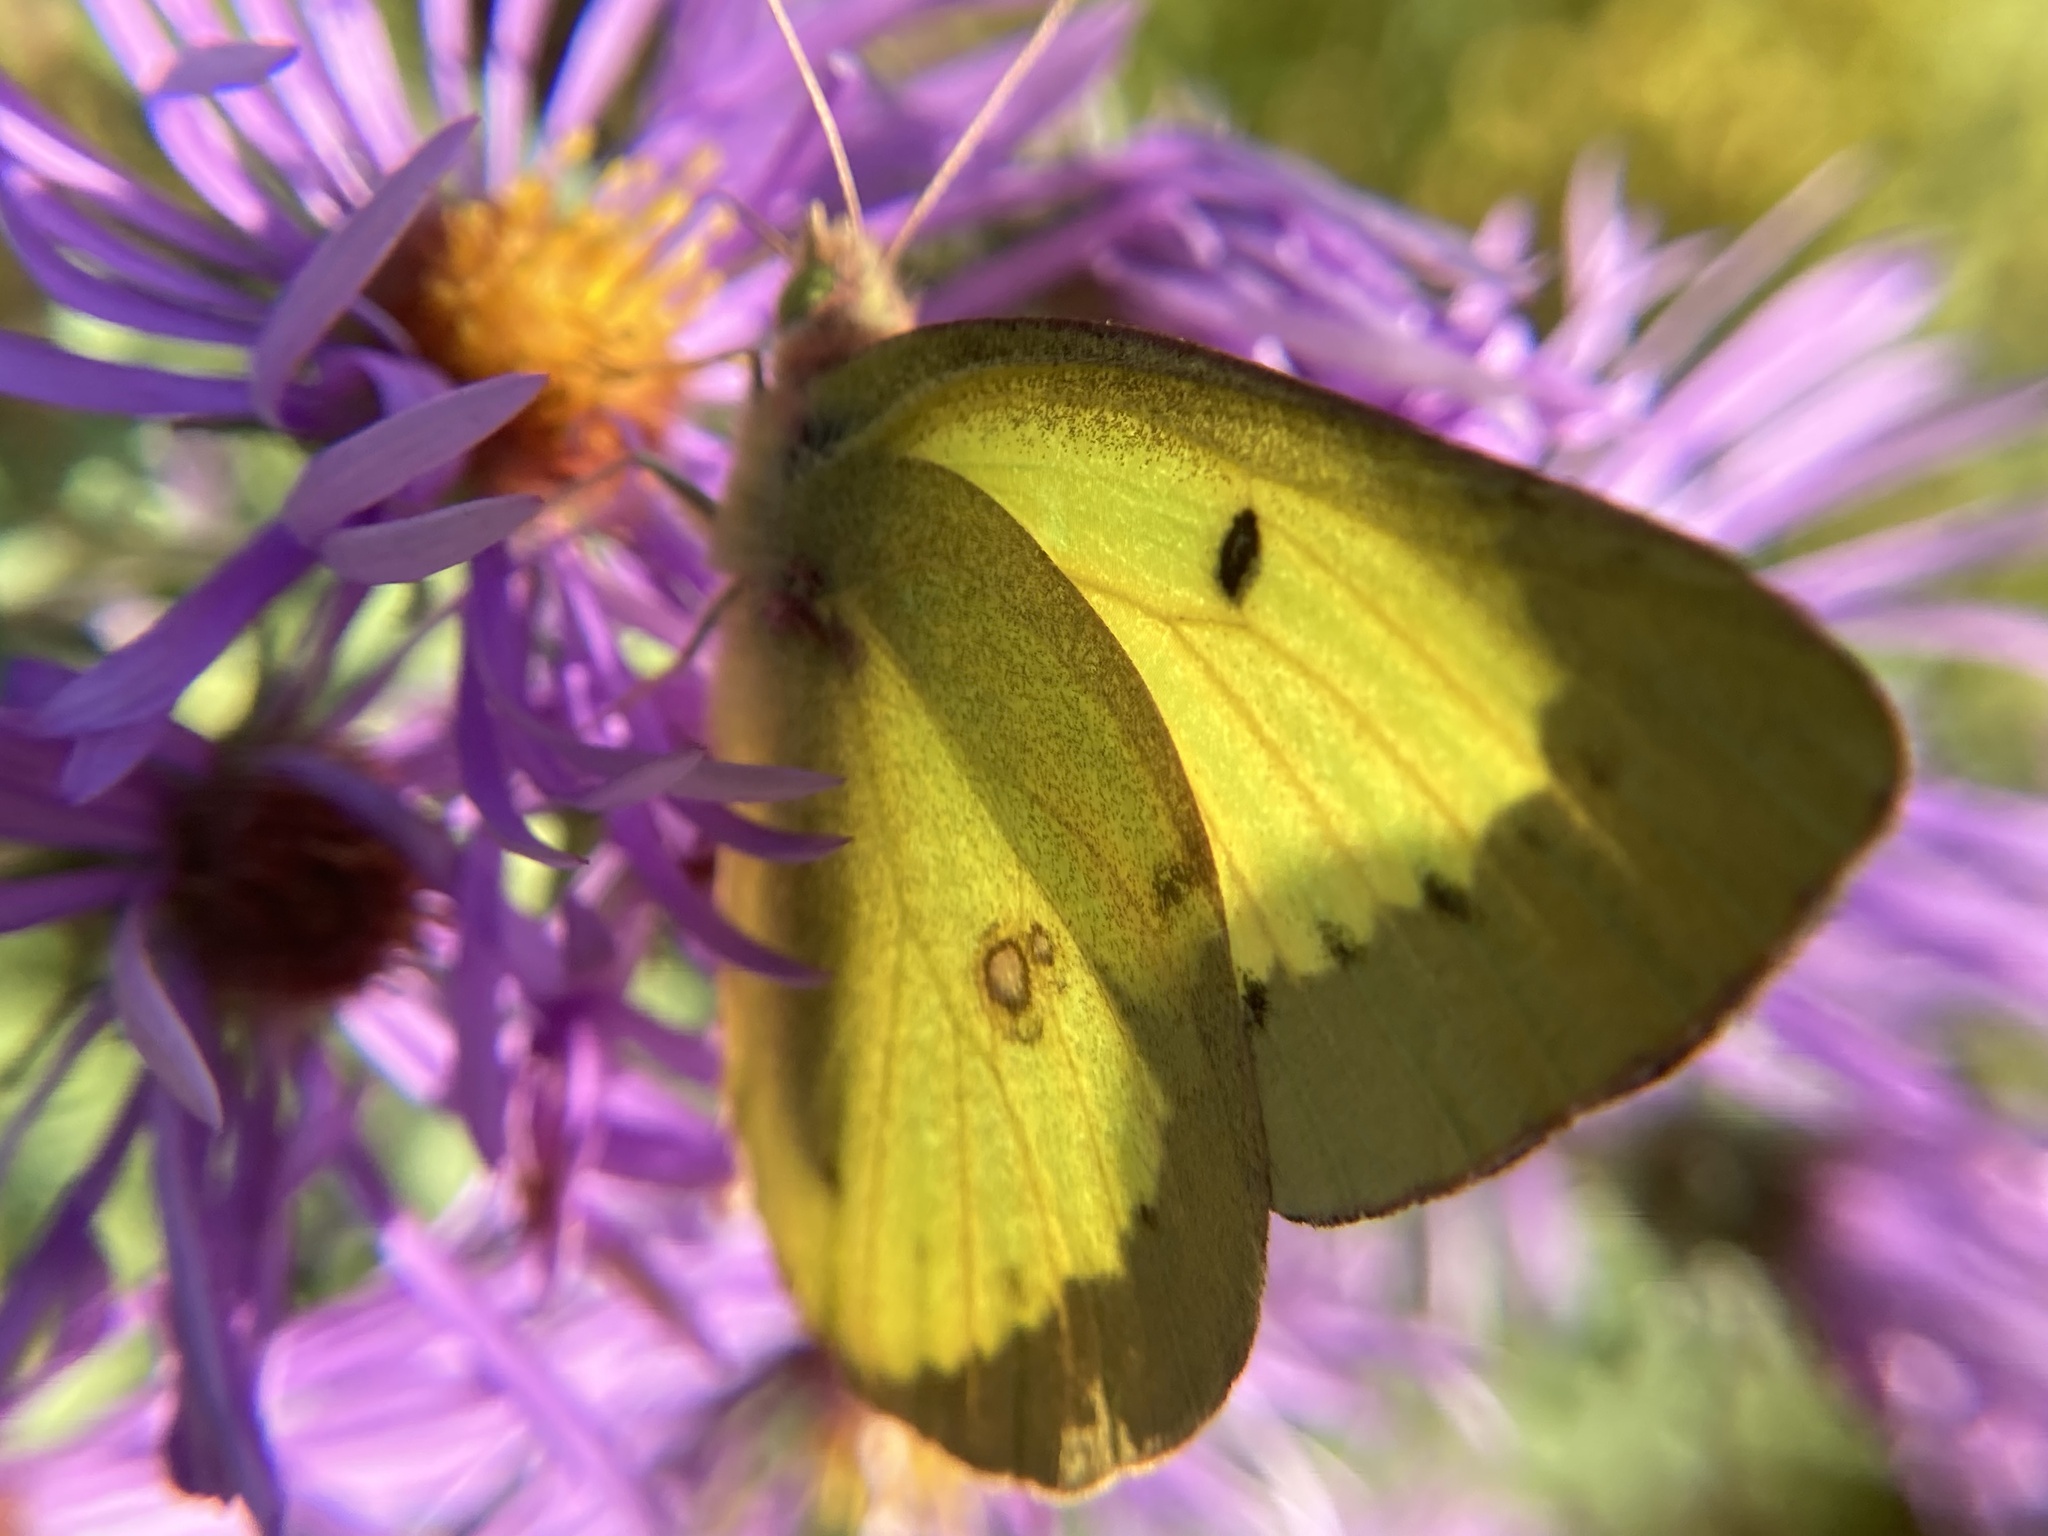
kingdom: Animalia
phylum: Arthropoda
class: Insecta
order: Lepidoptera
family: Pieridae
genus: Colias
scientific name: Colias philodice
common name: Clouded sulphur
